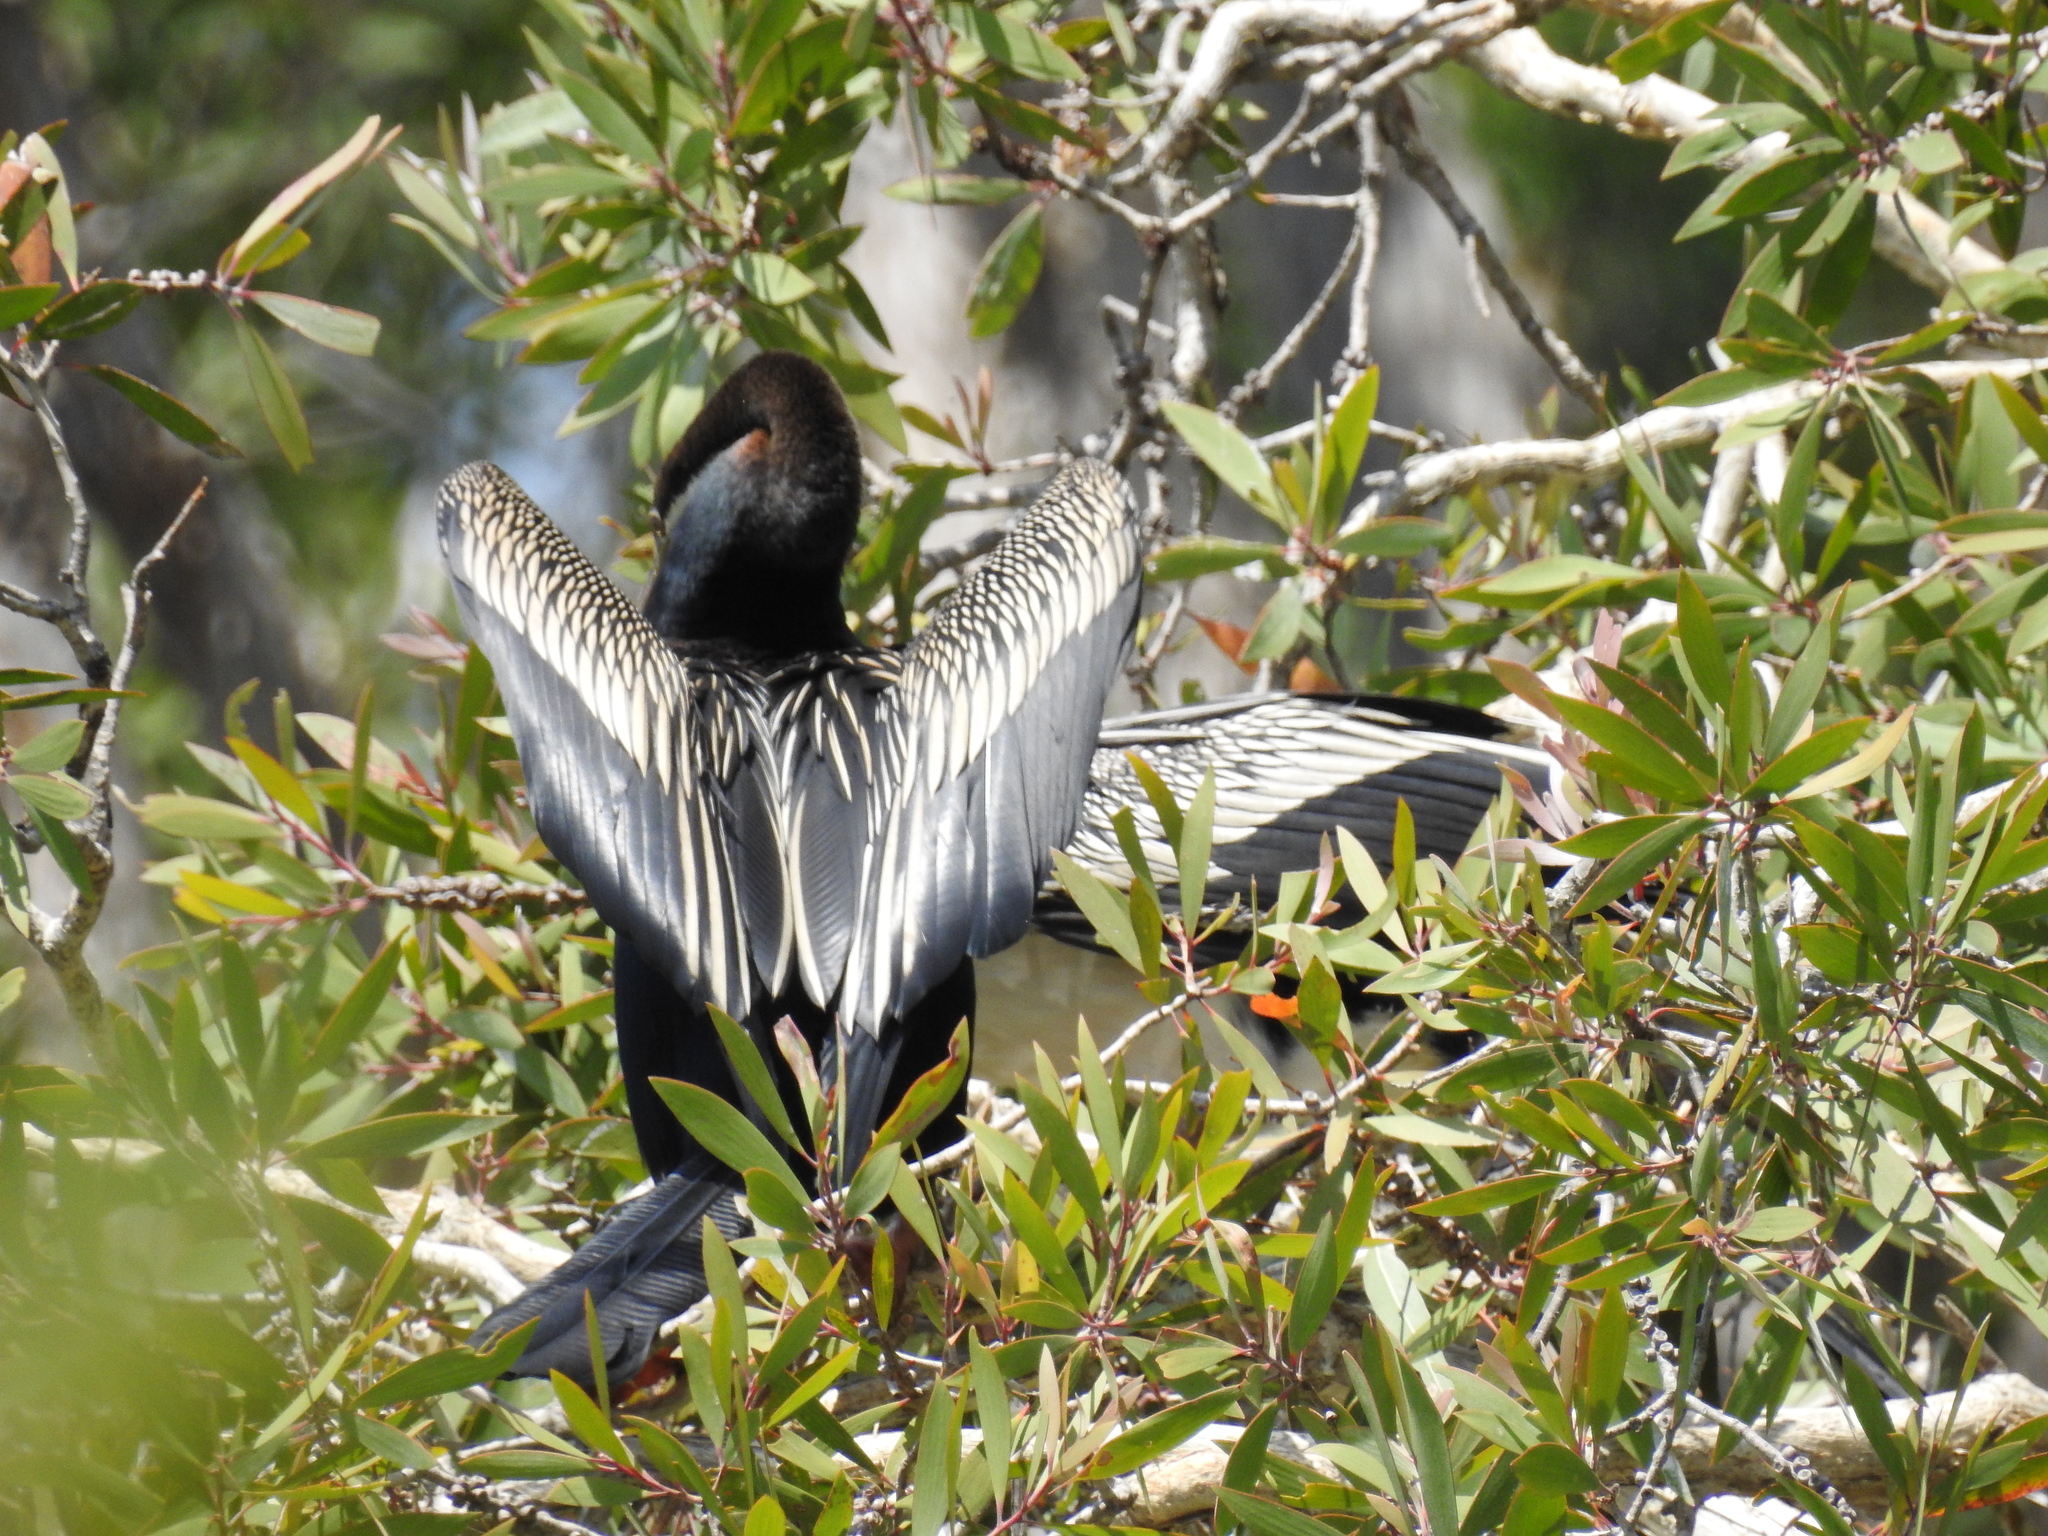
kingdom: Animalia
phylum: Chordata
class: Aves
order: Suliformes
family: Anhingidae
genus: Anhinga
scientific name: Anhinga novaehollandiae
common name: Australasian darter
